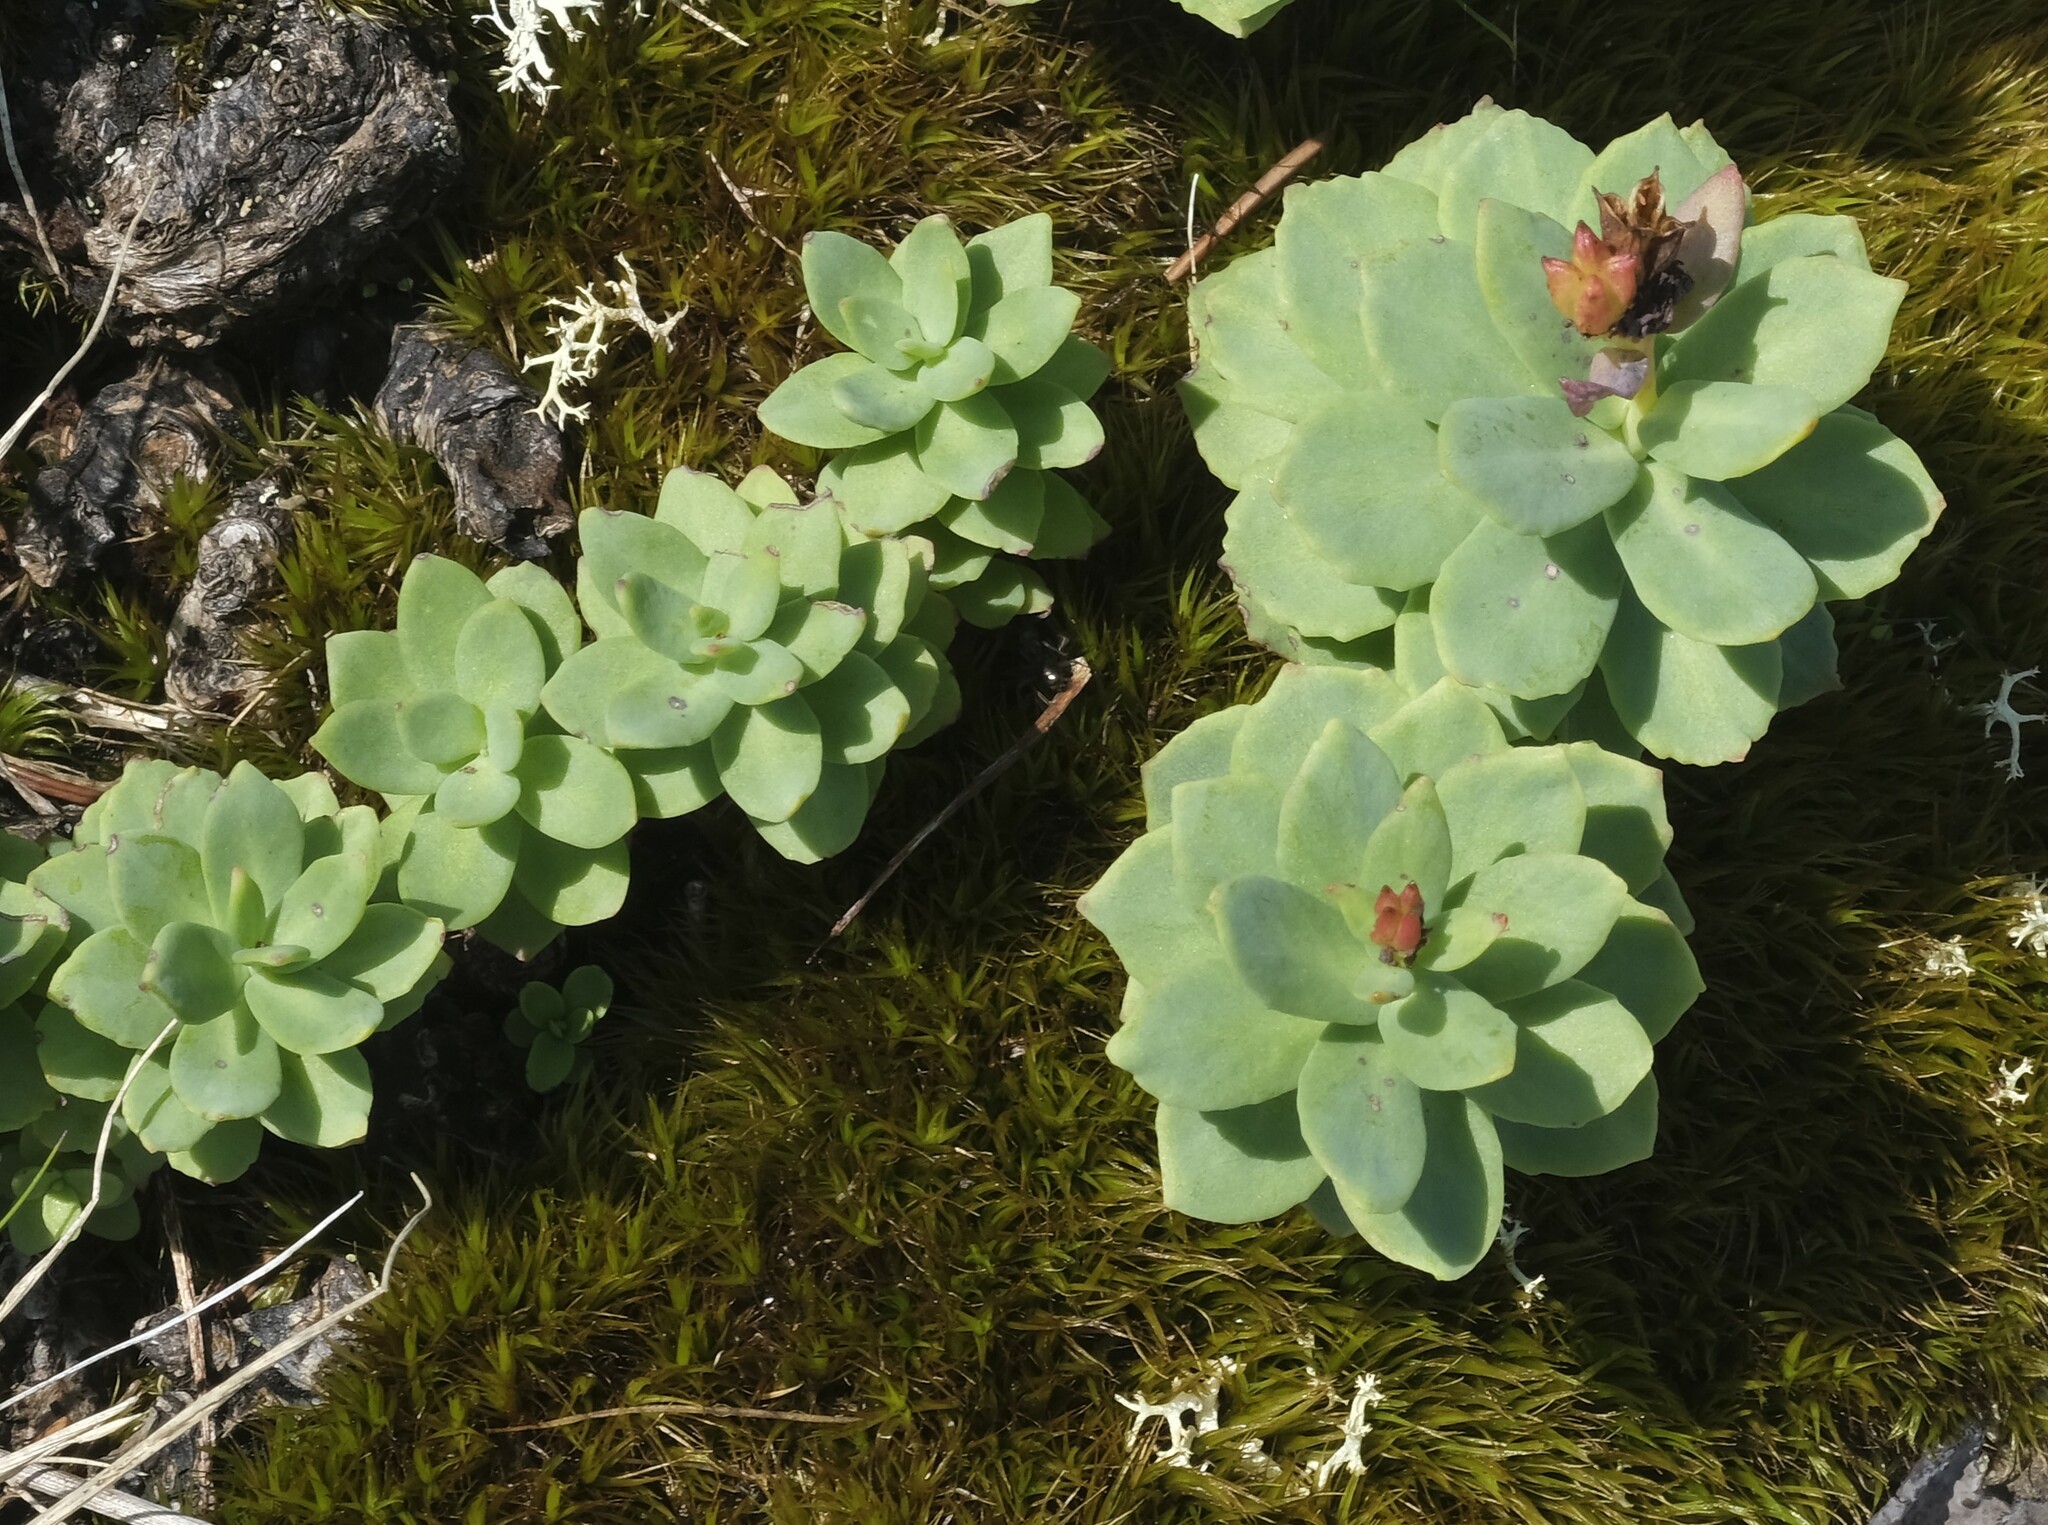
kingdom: Plantae
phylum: Tracheophyta
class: Magnoliopsida
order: Saxifragales
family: Crassulaceae
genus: Rhodiola
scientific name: Rhodiola rosea
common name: Roseroot
